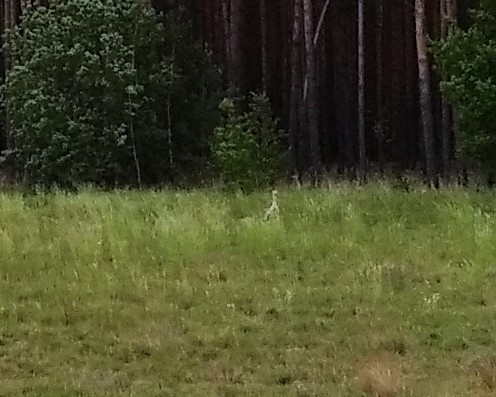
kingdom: Animalia
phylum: Chordata
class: Aves
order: Ciconiiformes
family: Ciconiidae
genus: Ciconia
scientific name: Ciconia ciconia
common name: White stork
